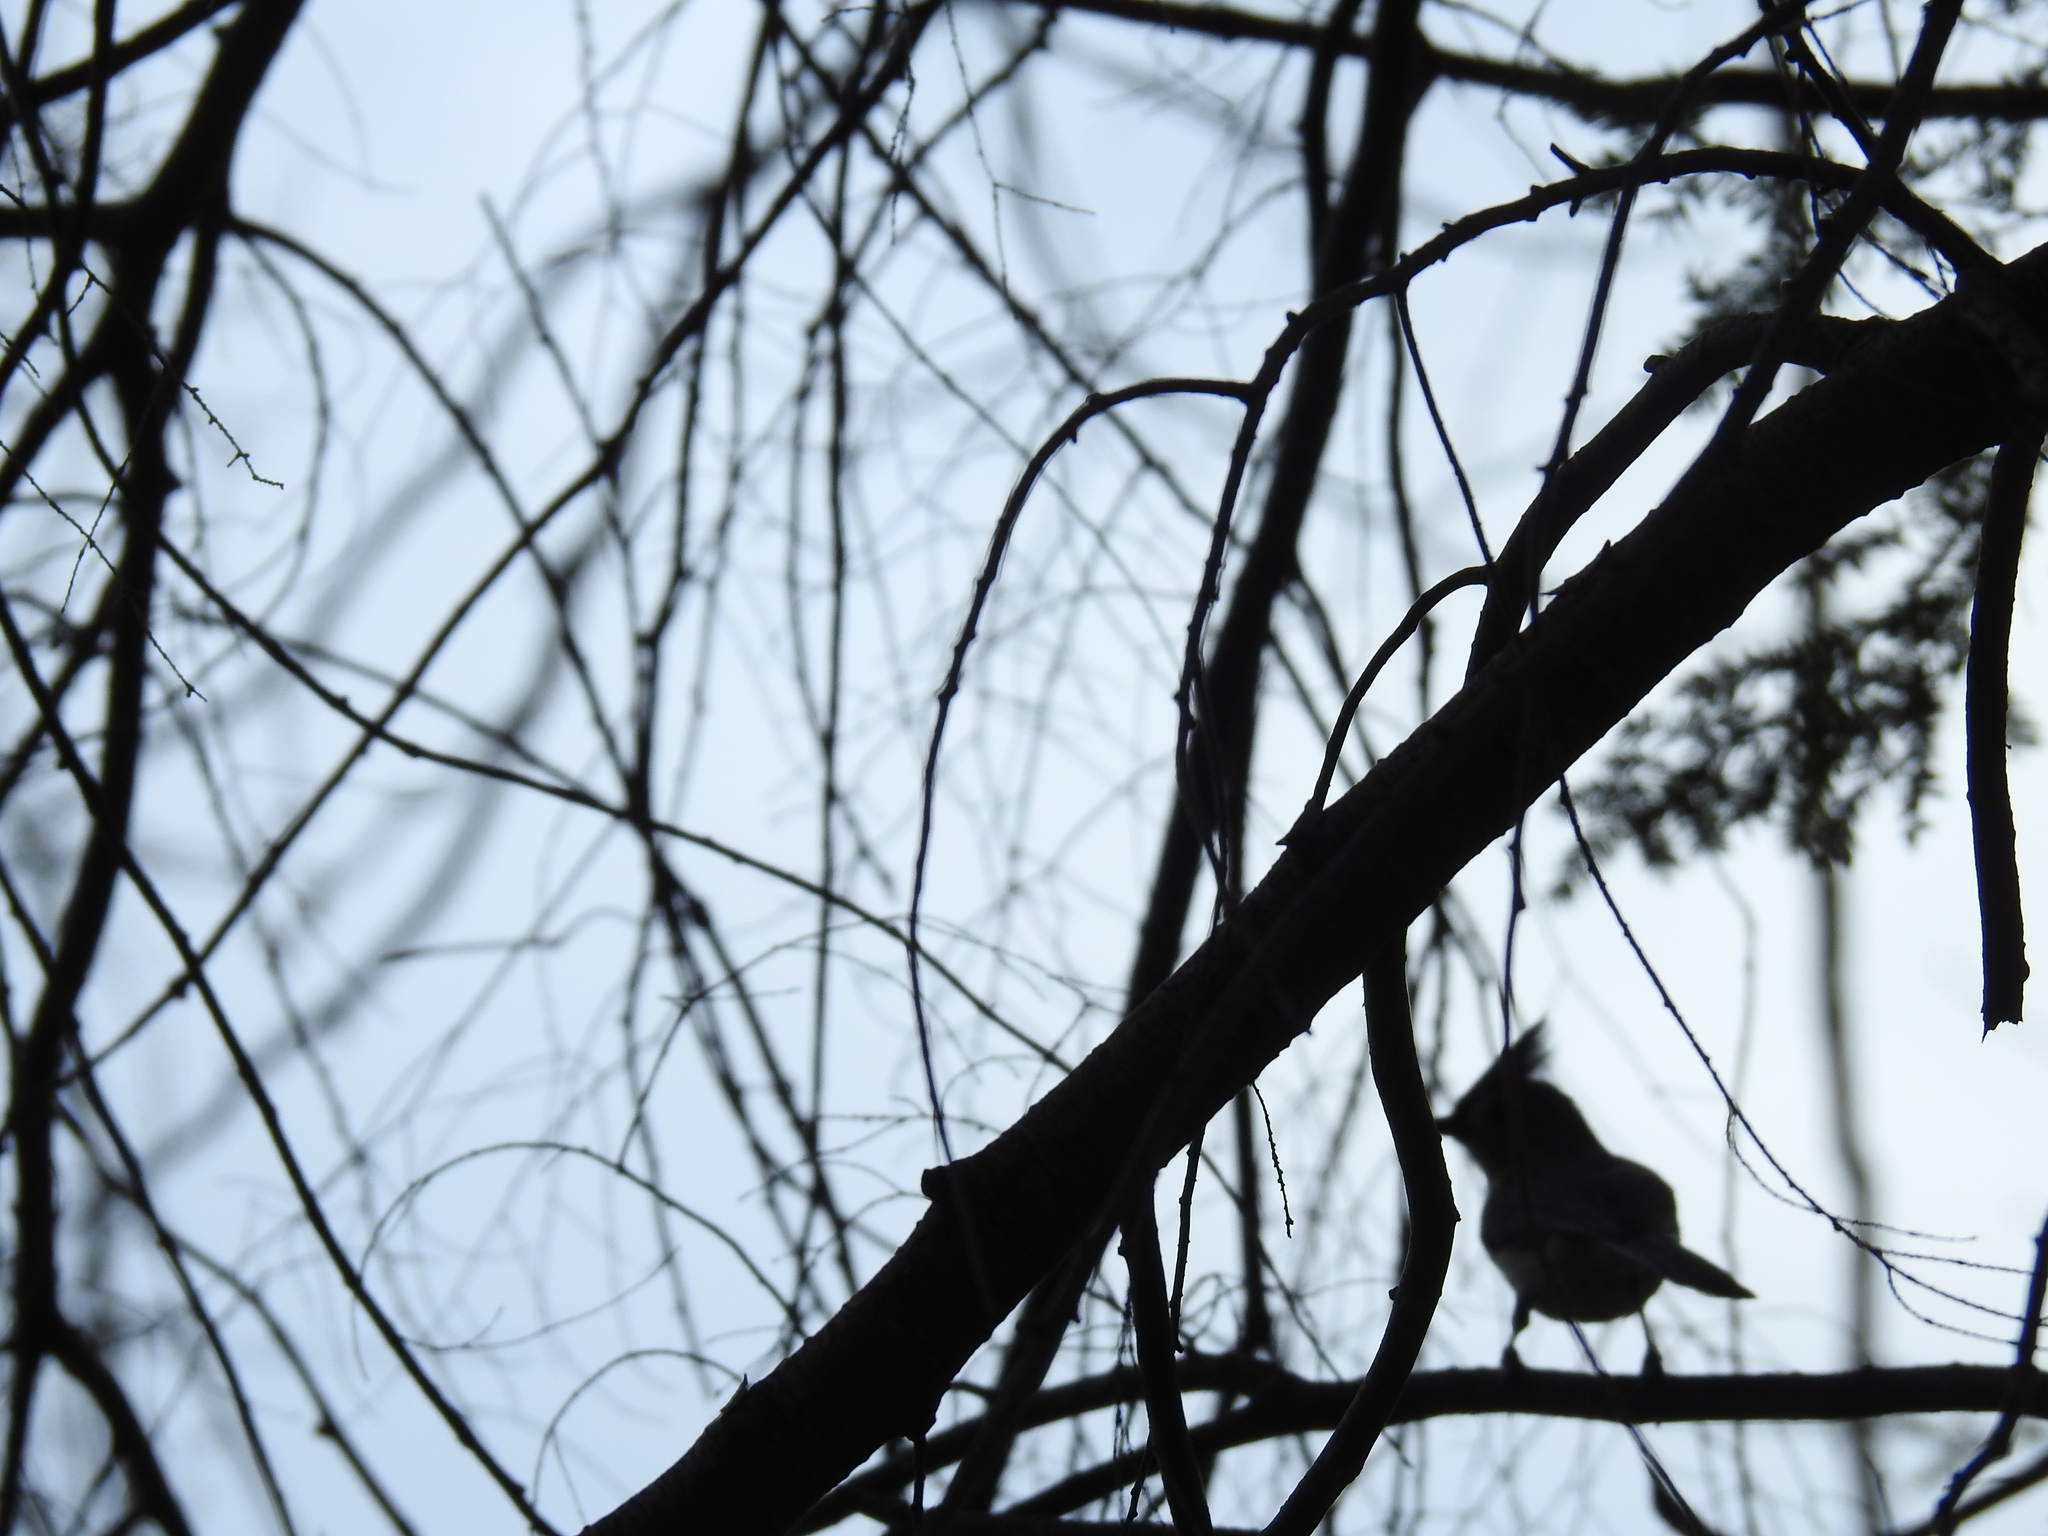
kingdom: Animalia
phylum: Chordata
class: Aves
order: Passeriformes
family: Paridae
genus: Baeolophus
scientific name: Baeolophus bicolor
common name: Tufted titmouse
